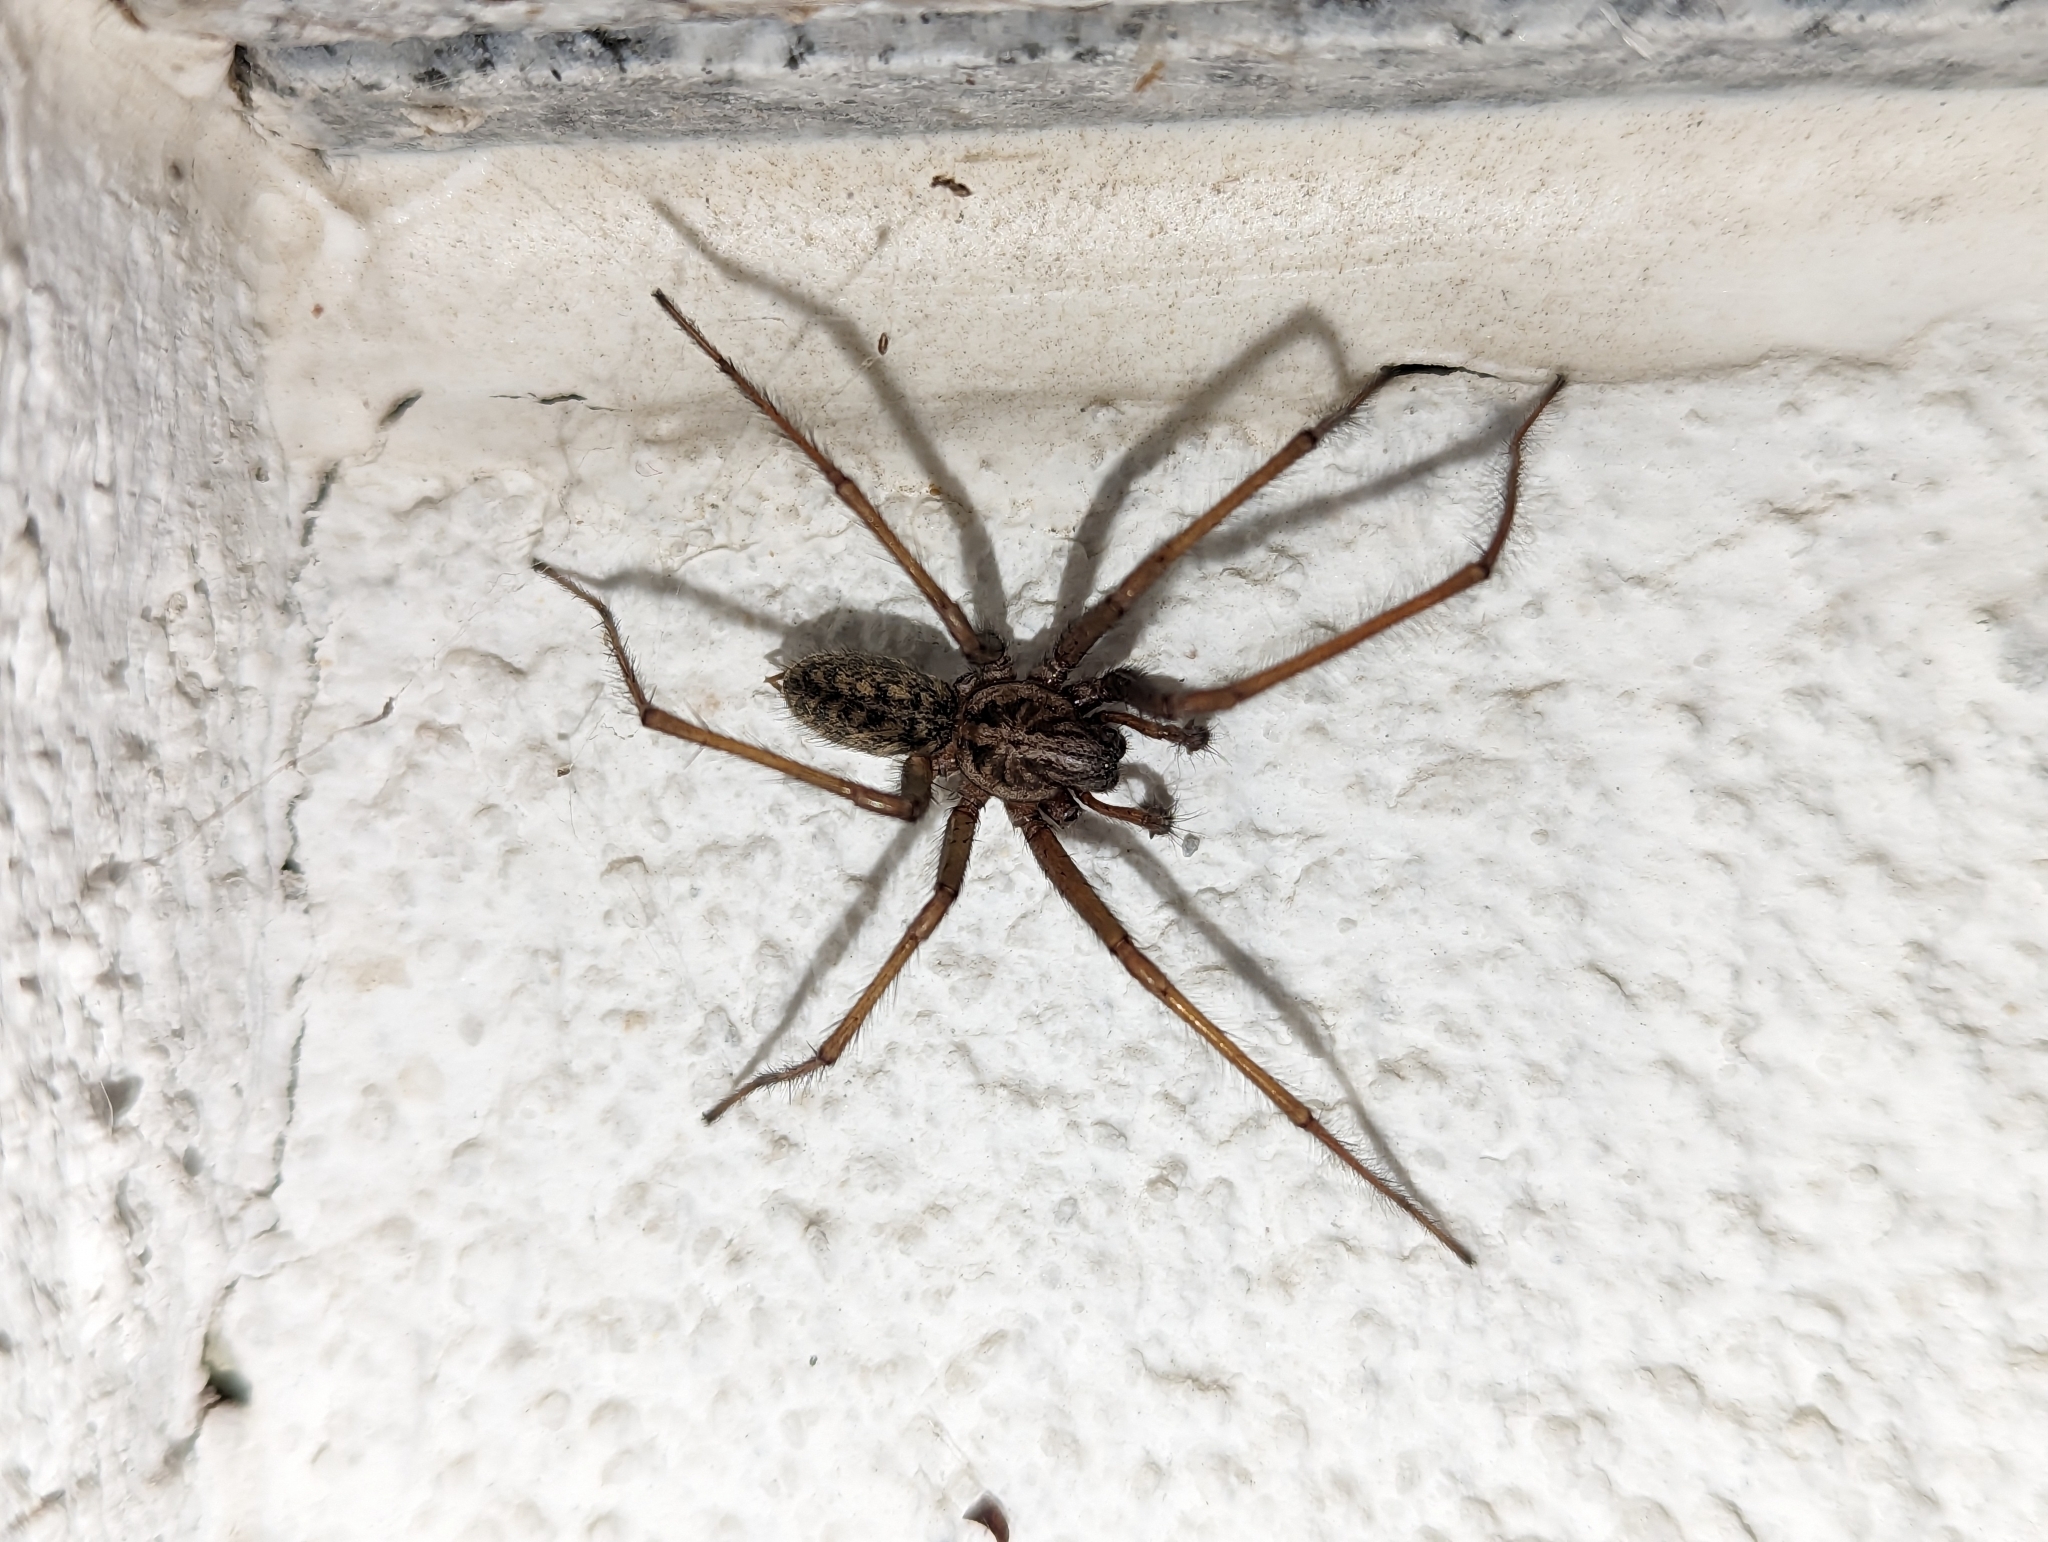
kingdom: Animalia
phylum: Arthropoda
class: Arachnida
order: Araneae
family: Agelenidae
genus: Eratigena
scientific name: Eratigena atrica
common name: Giant house spider
